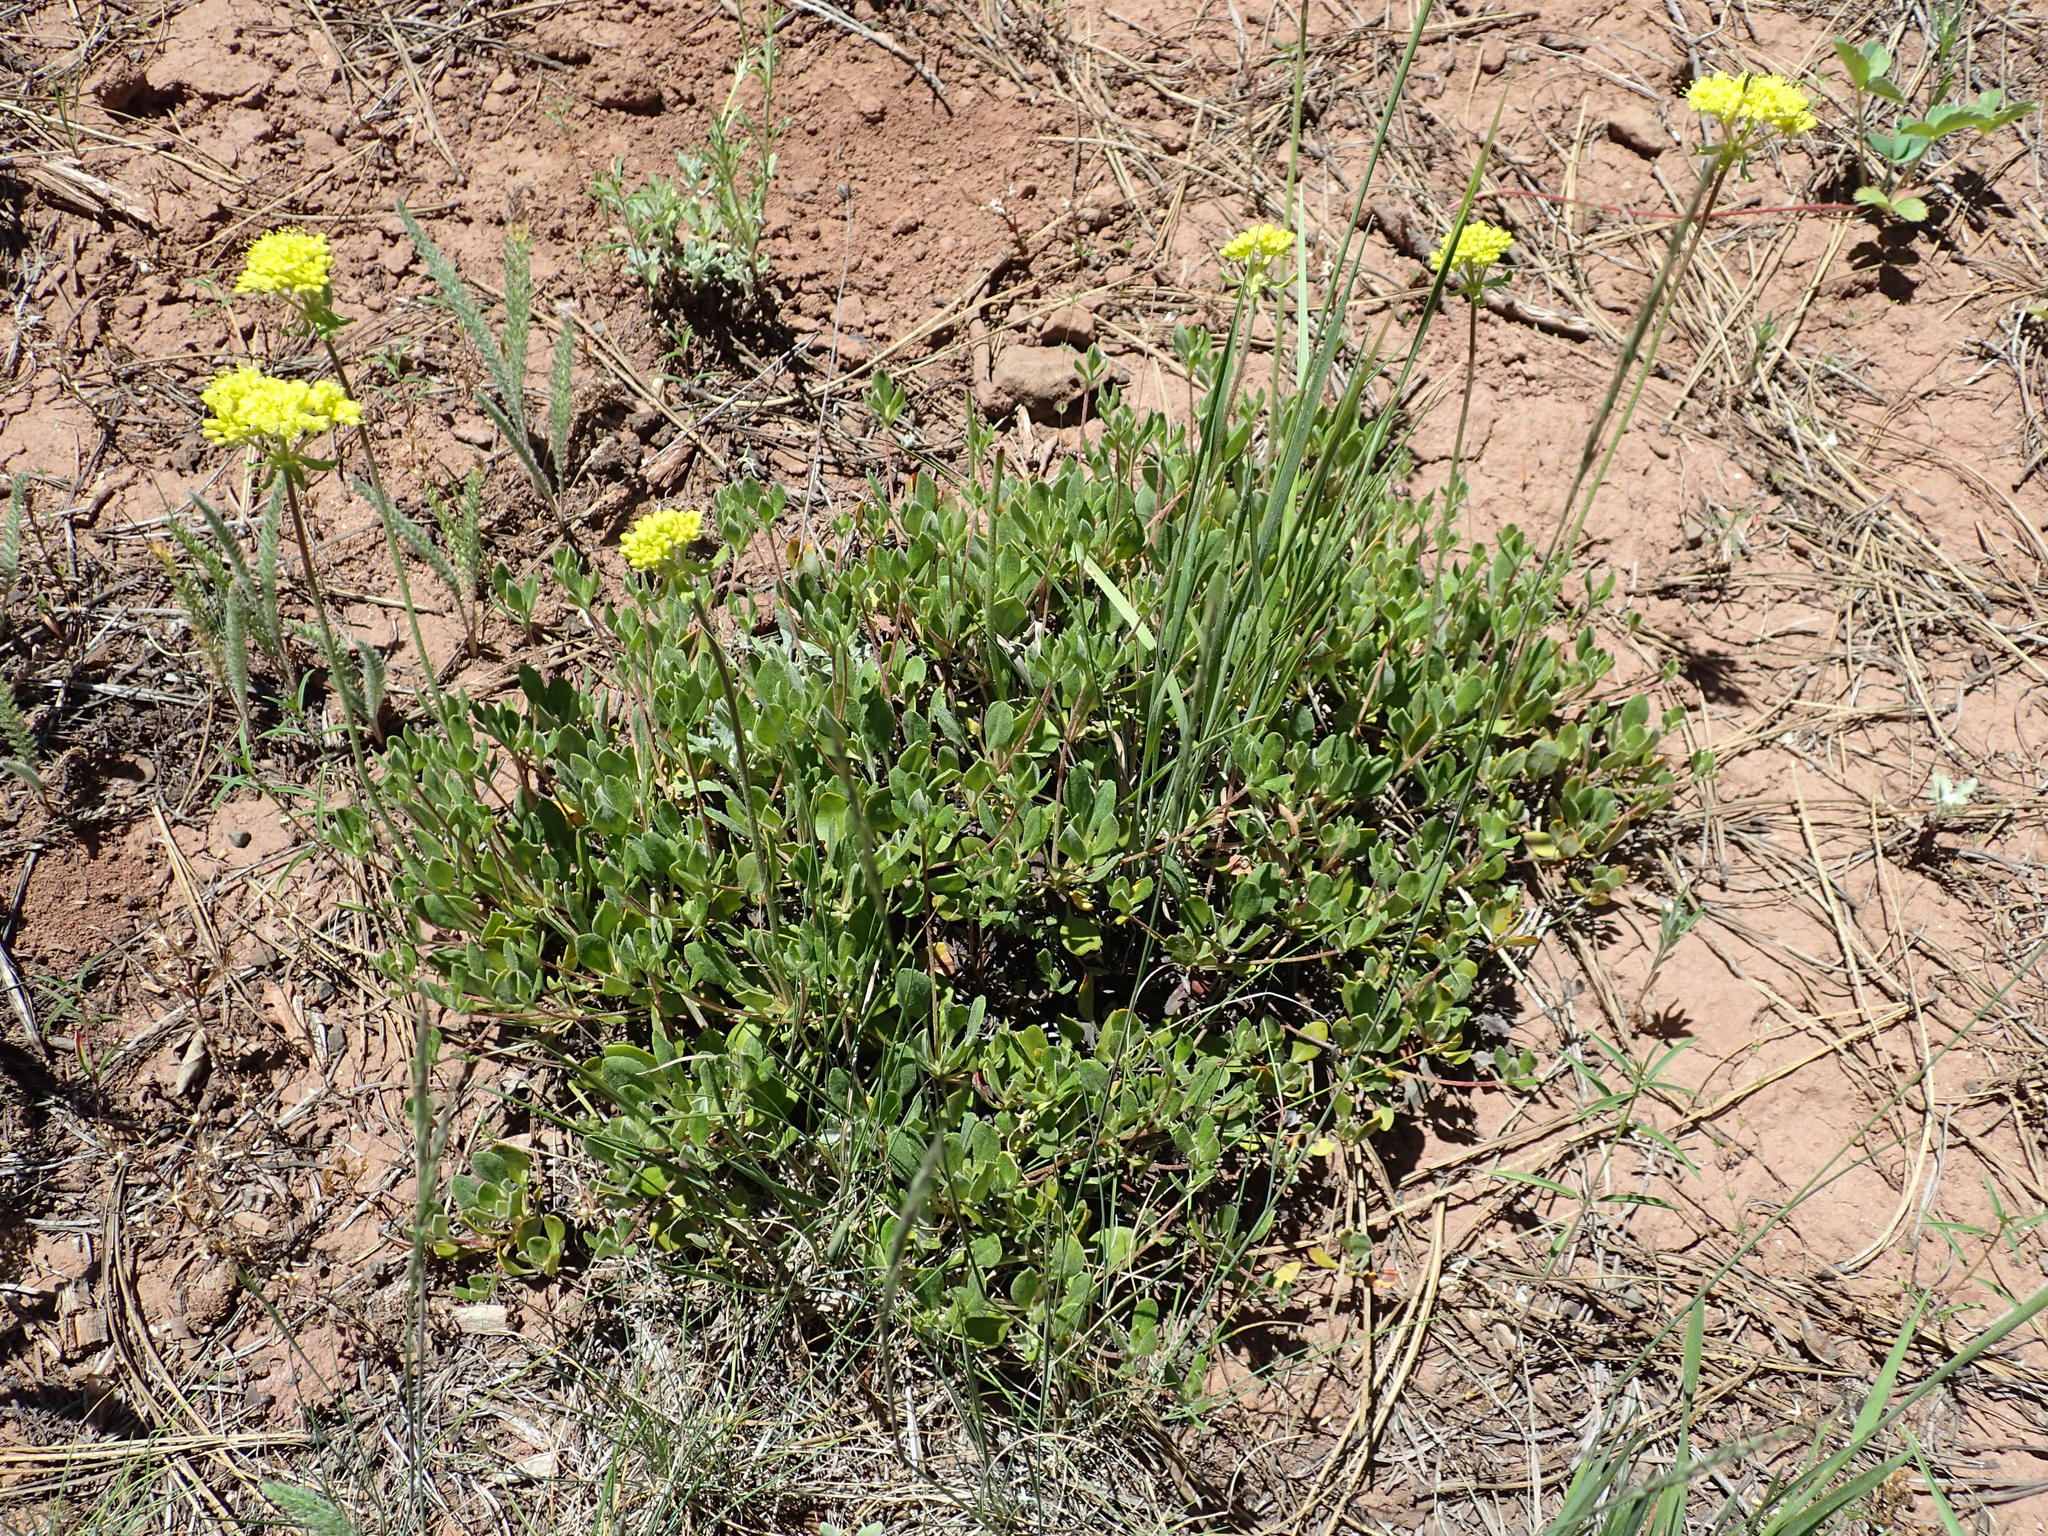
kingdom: Plantae
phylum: Tracheophyta
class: Magnoliopsida
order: Caryophyllales
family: Polygonaceae
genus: Eriogonum
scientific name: Eriogonum umbellatum
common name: Sulfur-buckwheat
